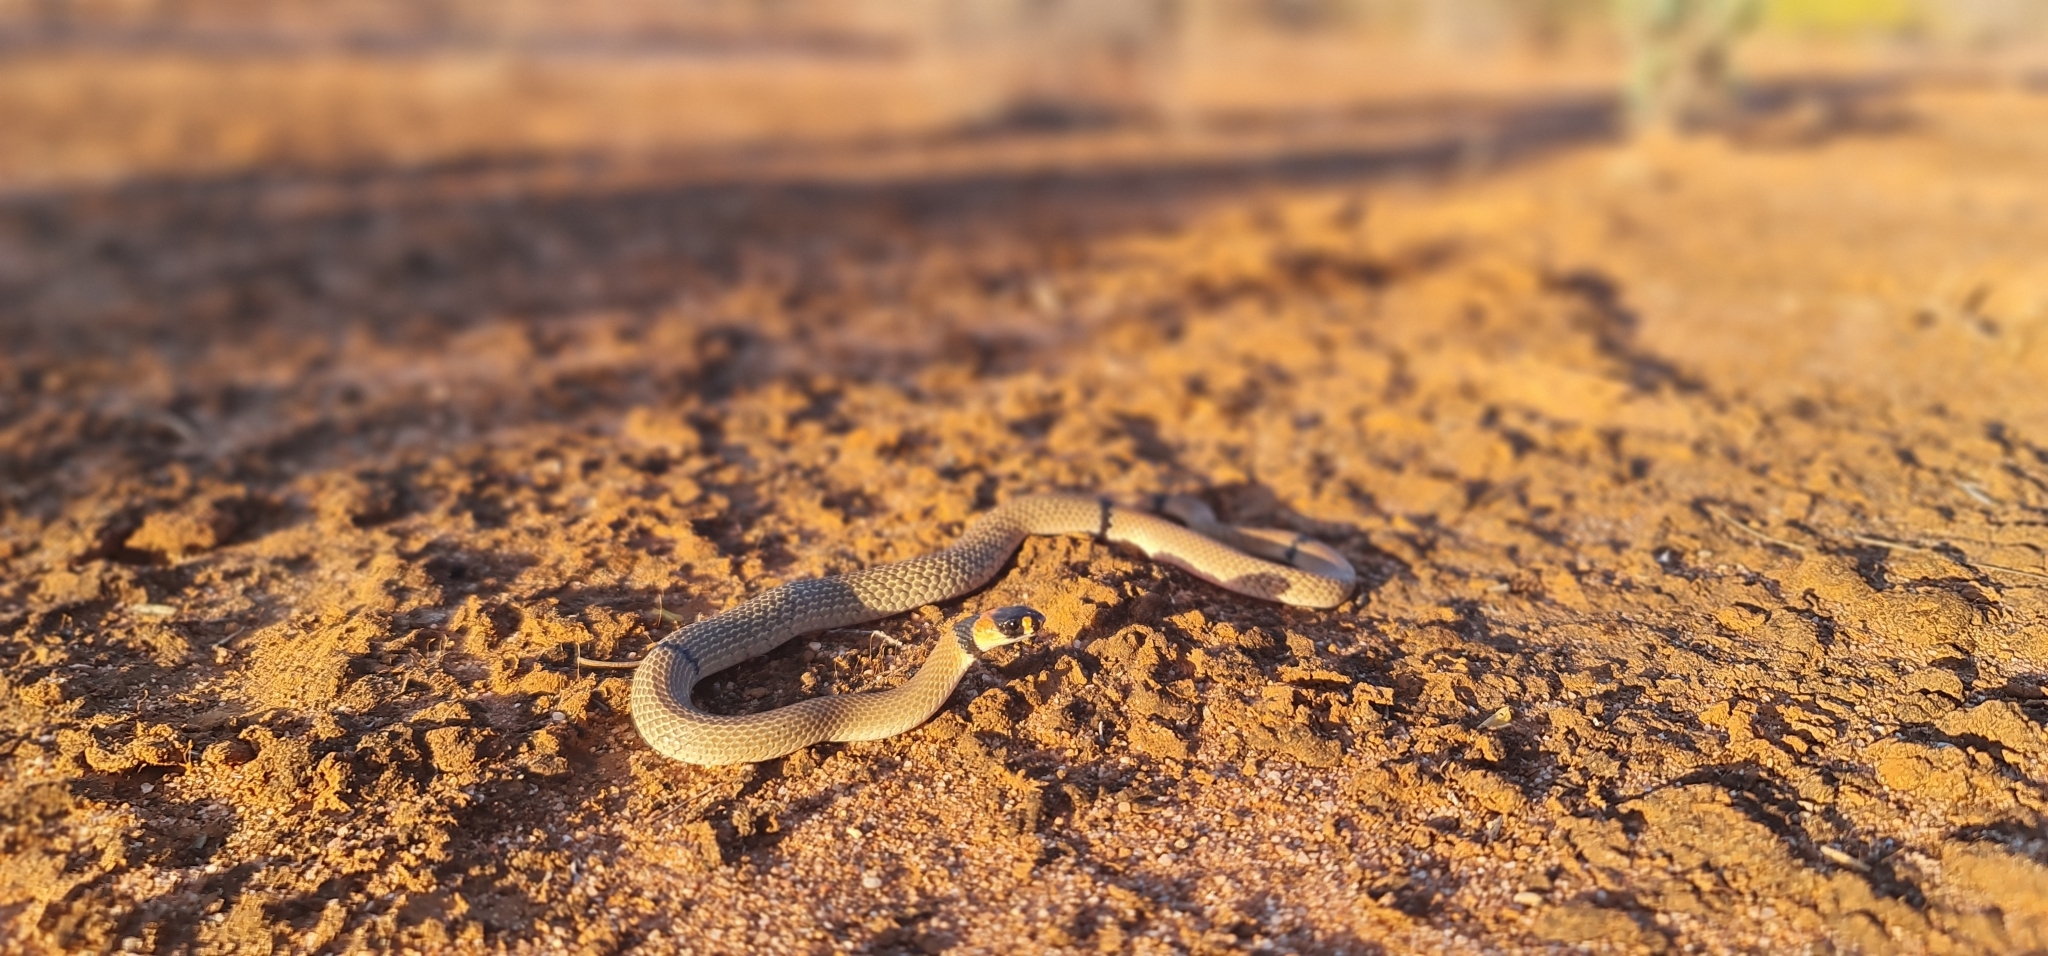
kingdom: Animalia
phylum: Chordata
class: Squamata
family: Elapidae
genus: Pseudonaja
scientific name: Pseudonaja modesta
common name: Ringed brown snake
